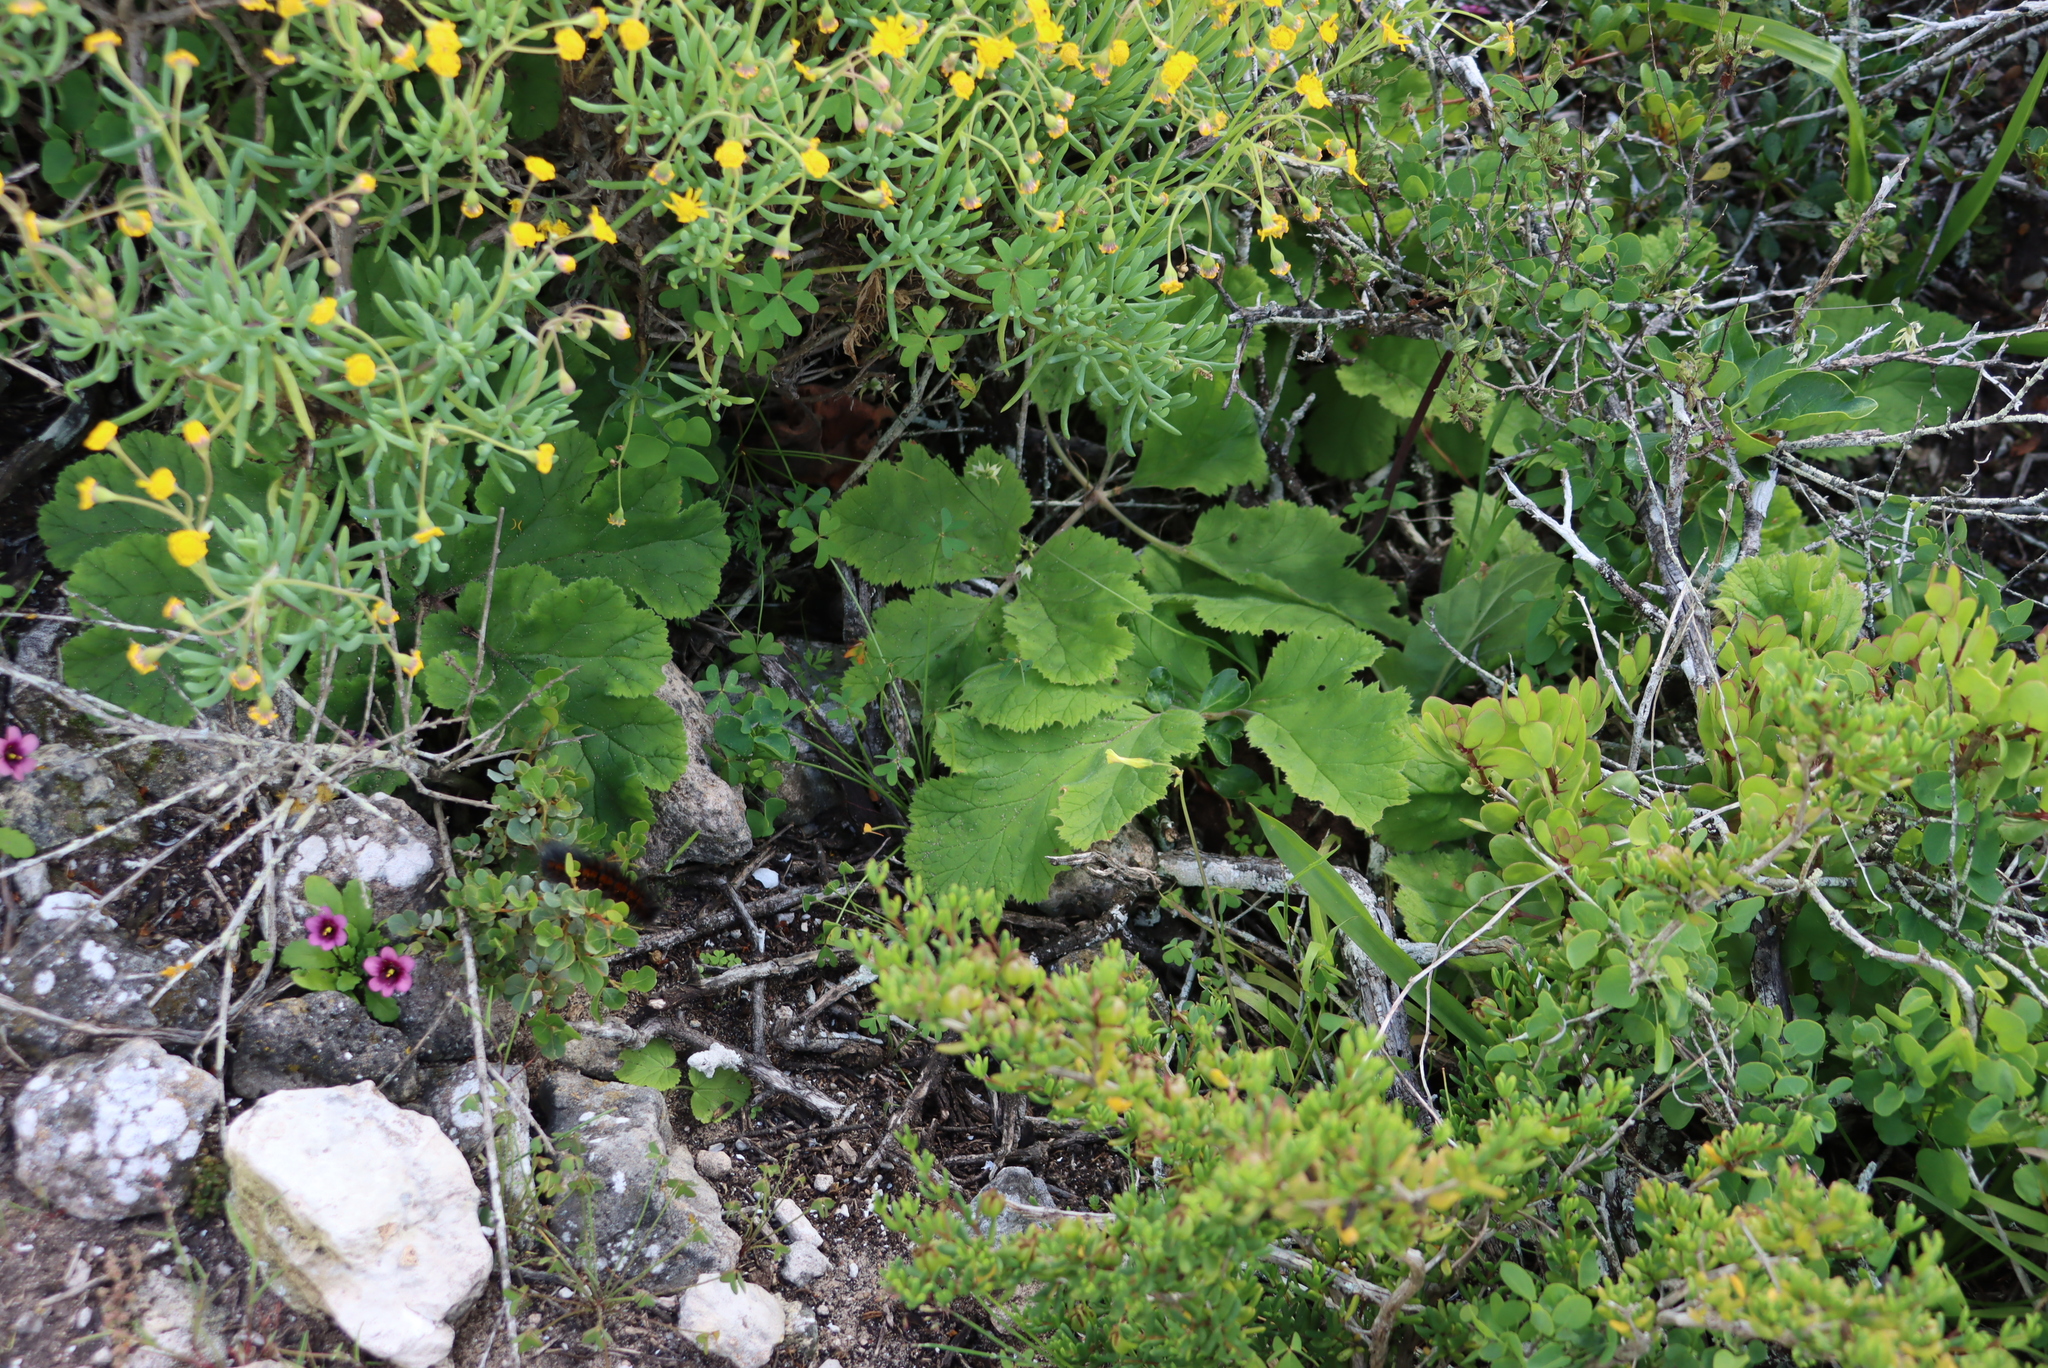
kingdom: Plantae
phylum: Tracheophyta
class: Magnoliopsida
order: Geraniales
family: Geraniaceae
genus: Pelargonium
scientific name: Pelargonium lobatum
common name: Vine-leaf pelargonium
